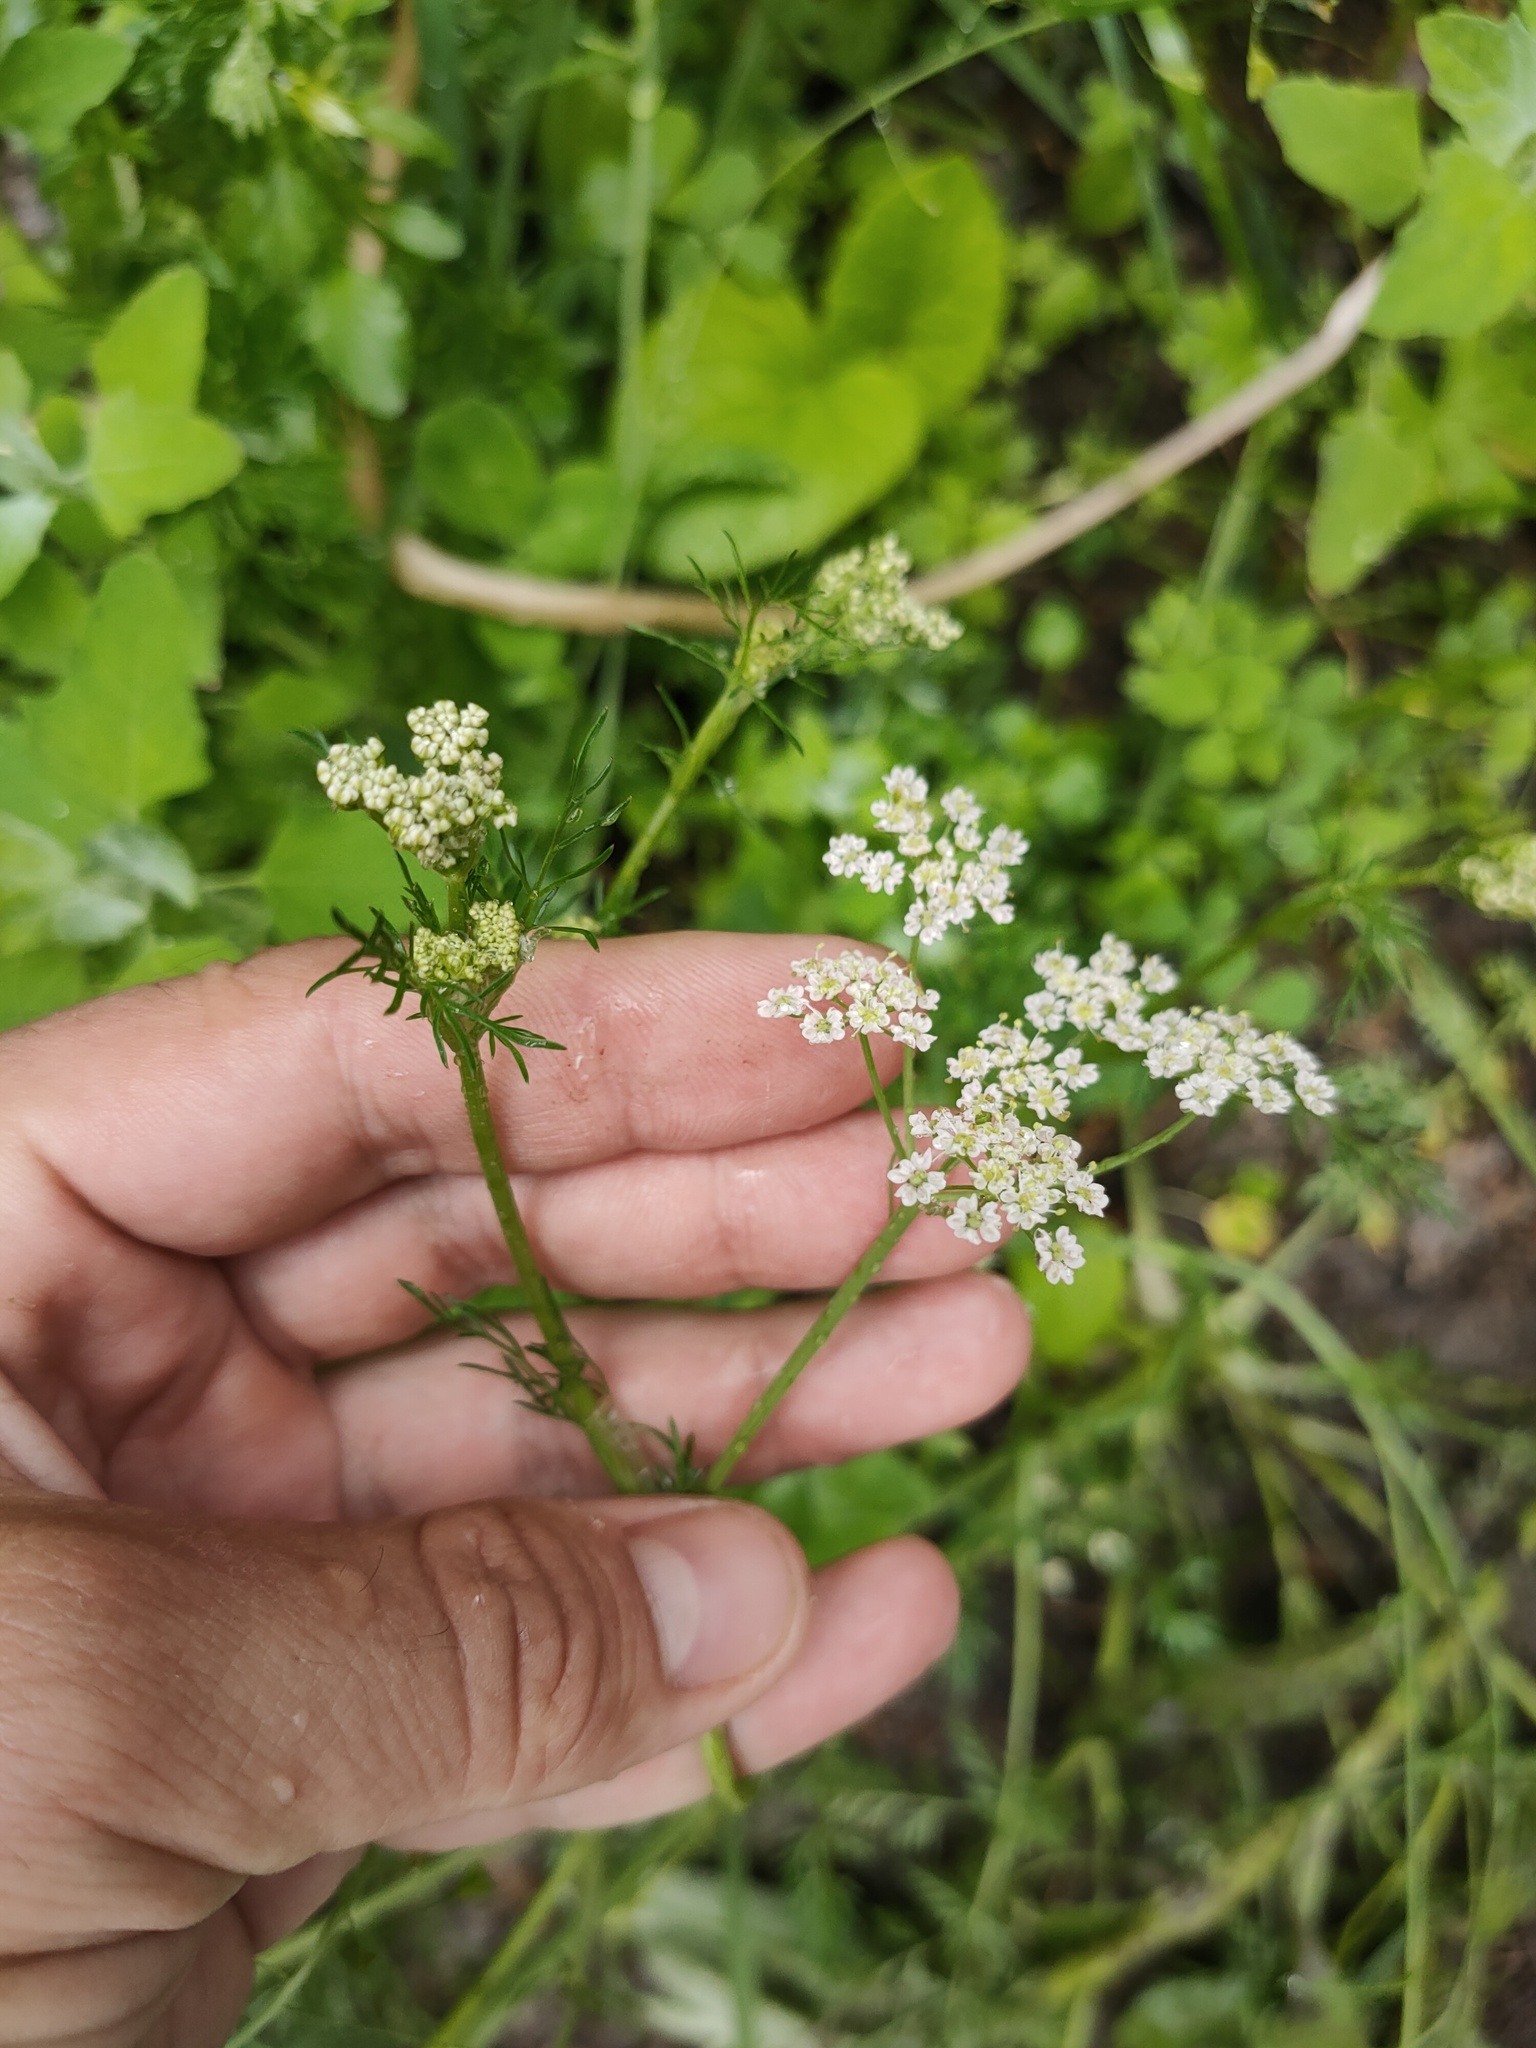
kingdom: Plantae
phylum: Tracheophyta
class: Magnoliopsida
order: Apiales
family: Apiaceae
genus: Carum
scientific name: Carum carvi
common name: Caraway
